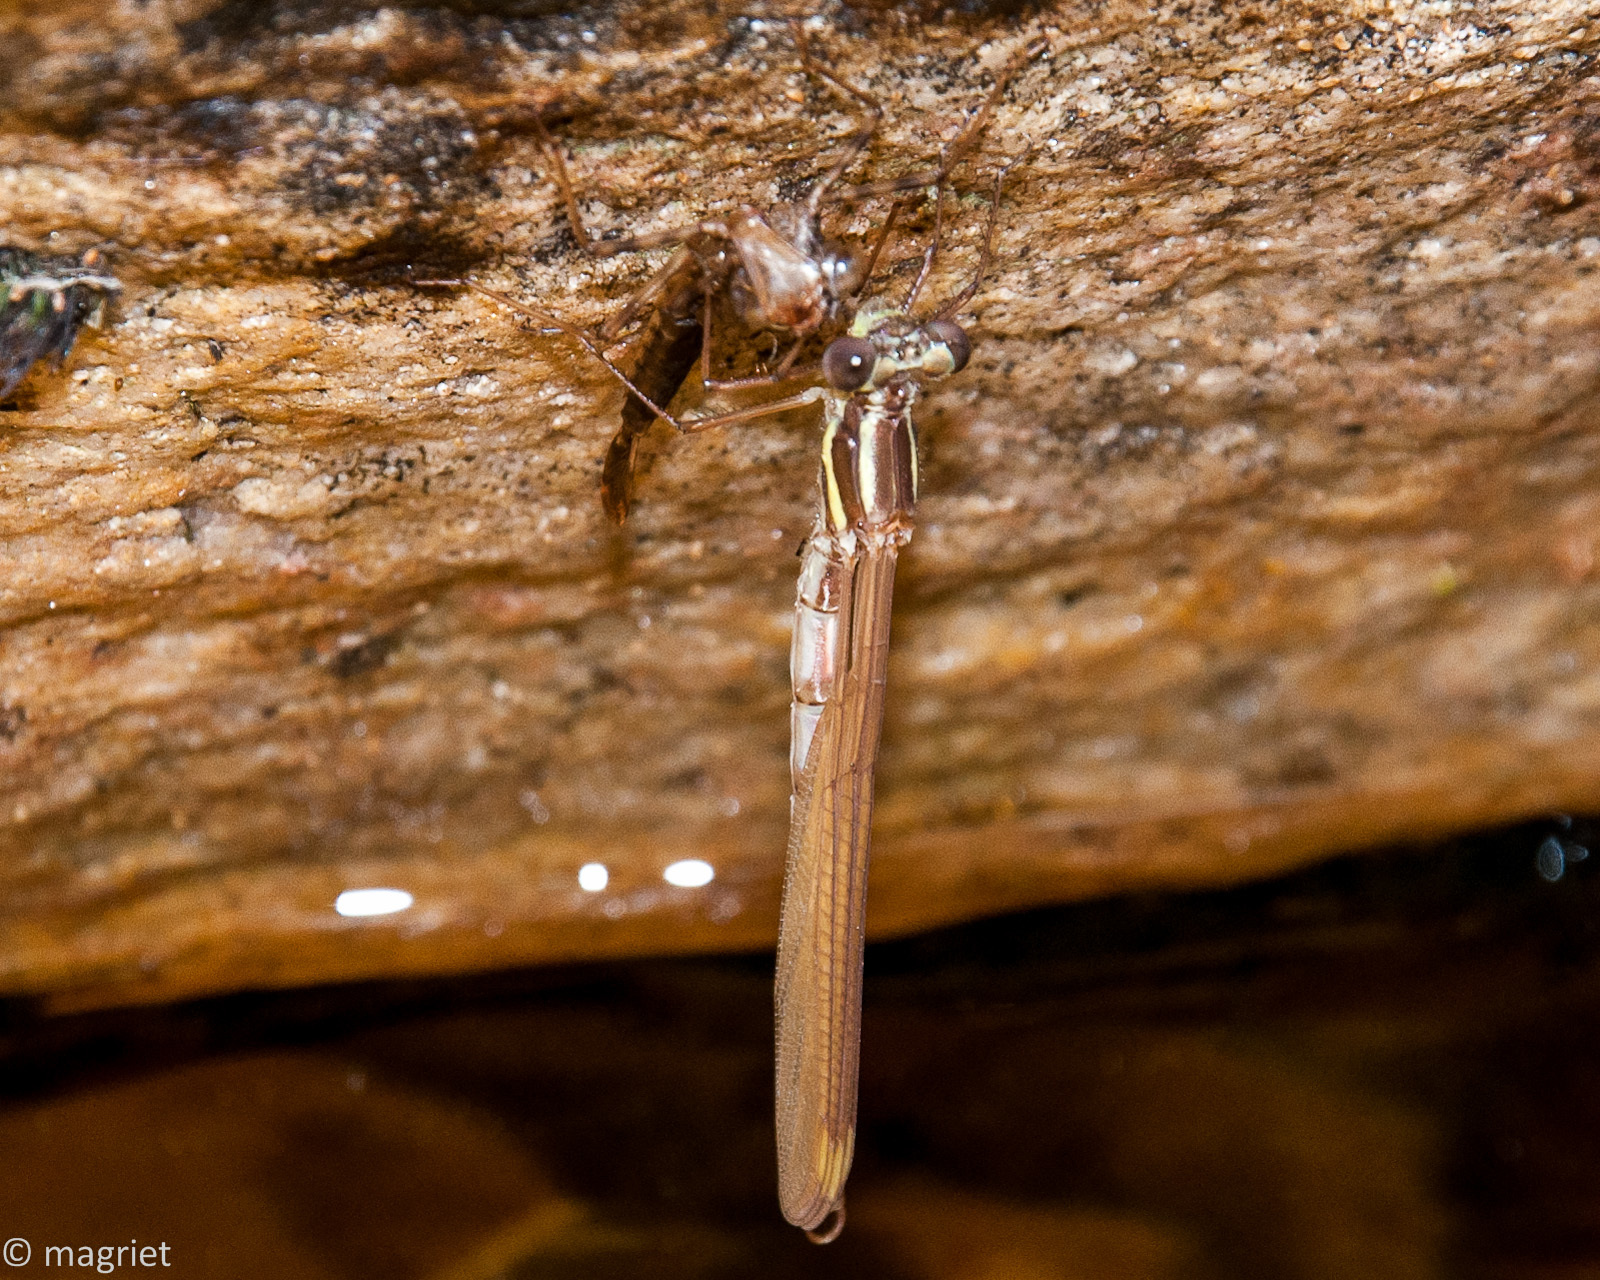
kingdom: Animalia
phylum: Arthropoda
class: Insecta
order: Odonata
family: Synlestidae
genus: Chlorolestes
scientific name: Chlorolestes conspicuus
